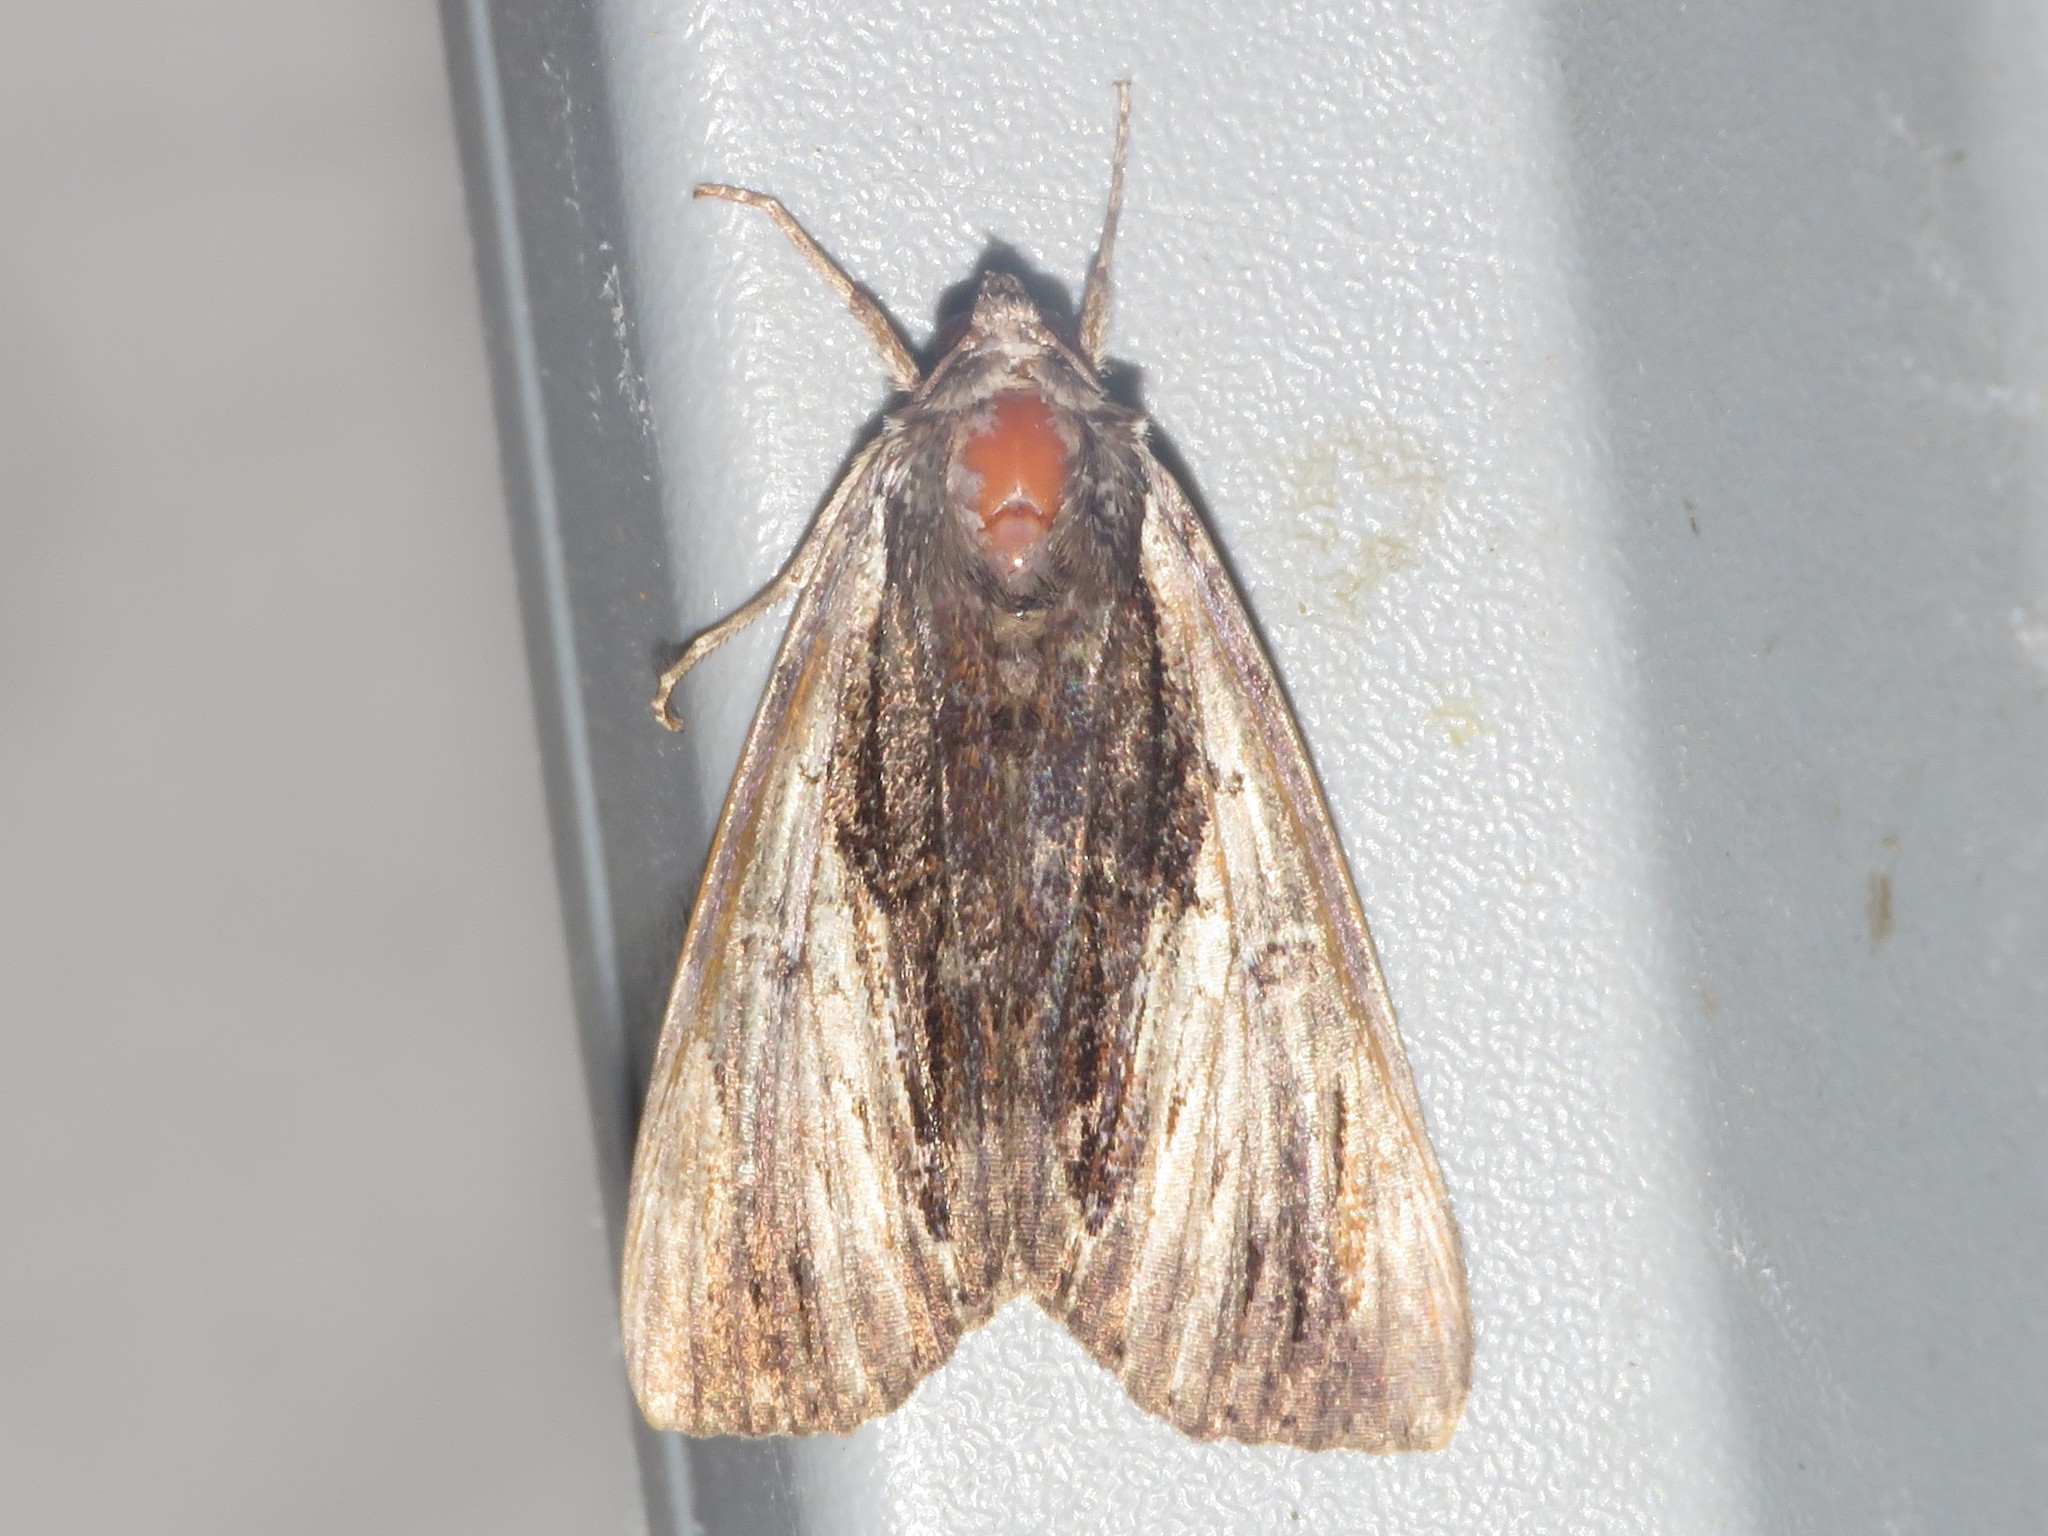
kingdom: Animalia
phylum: Arthropoda
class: Insecta
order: Lepidoptera
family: Erebidae
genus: Catocala
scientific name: Catocala ultronia
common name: Ultronia underwing
